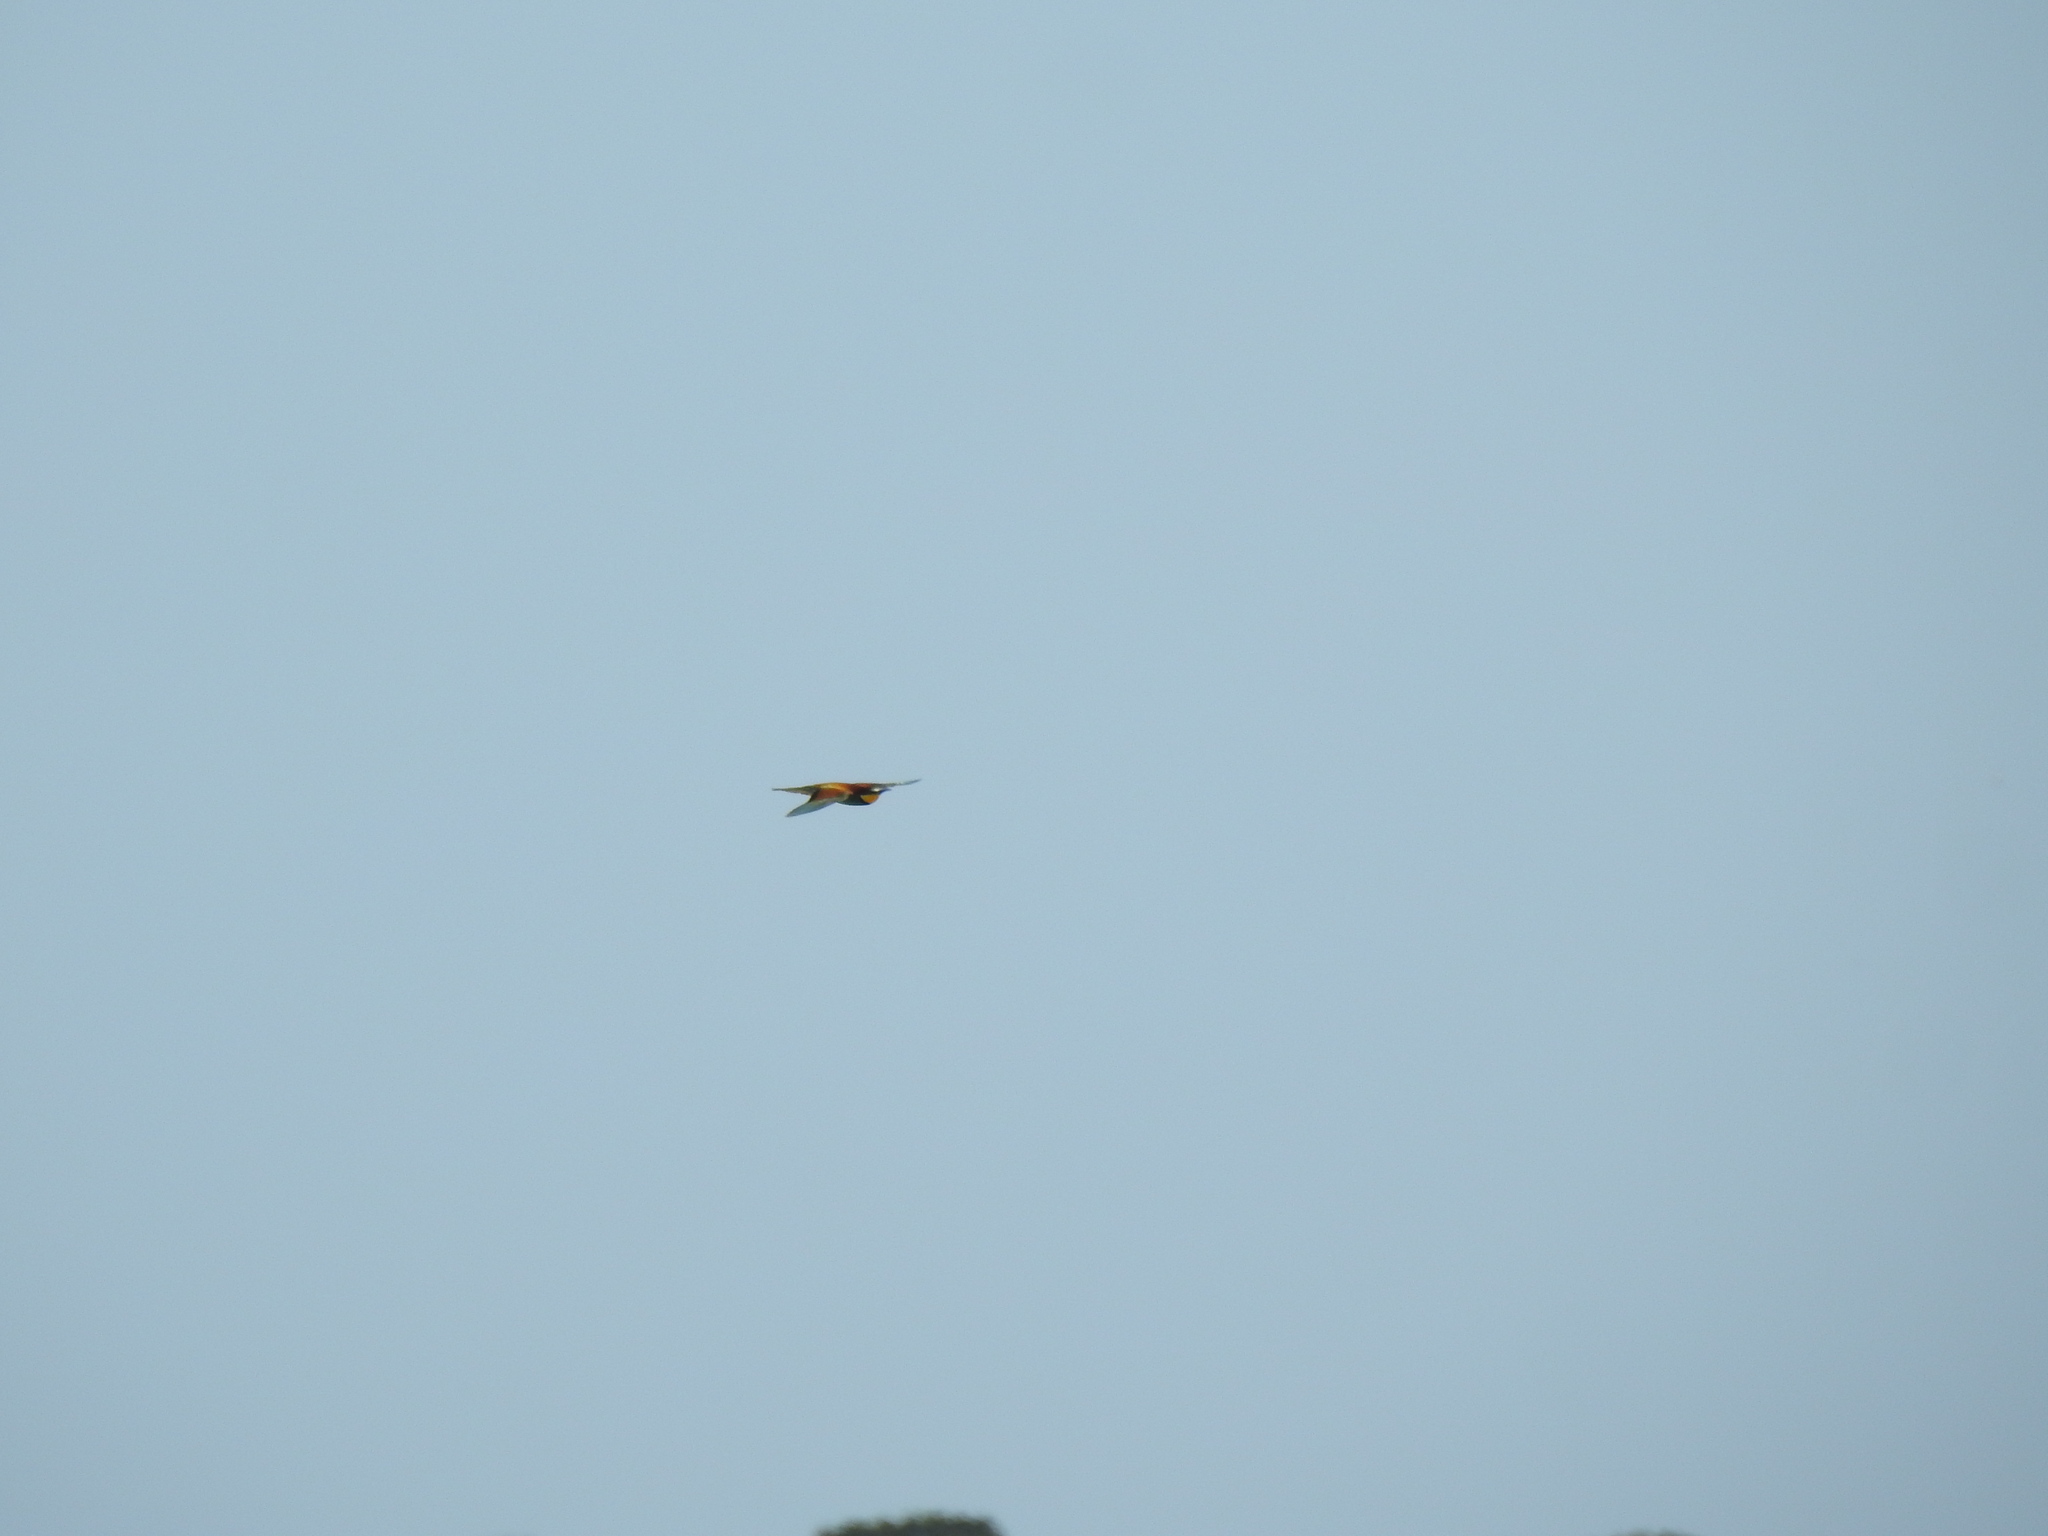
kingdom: Animalia
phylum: Chordata
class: Aves
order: Coraciiformes
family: Meropidae
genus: Merops
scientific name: Merops apiaster
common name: European bee-eater
